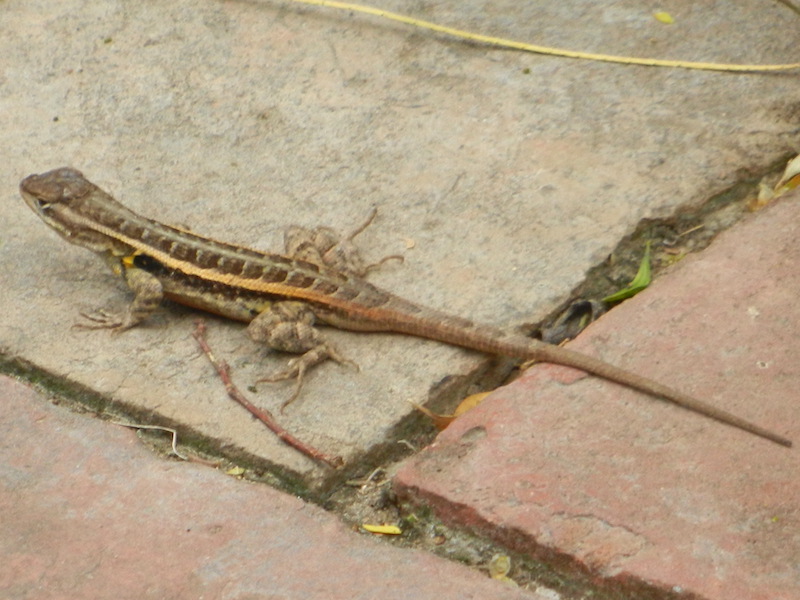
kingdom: Animalia
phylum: Chordata
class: Squamata
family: Phrynosomatidae
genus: Sceloporus
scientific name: Sceloporus variabilis
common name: Rosebelly lizard
